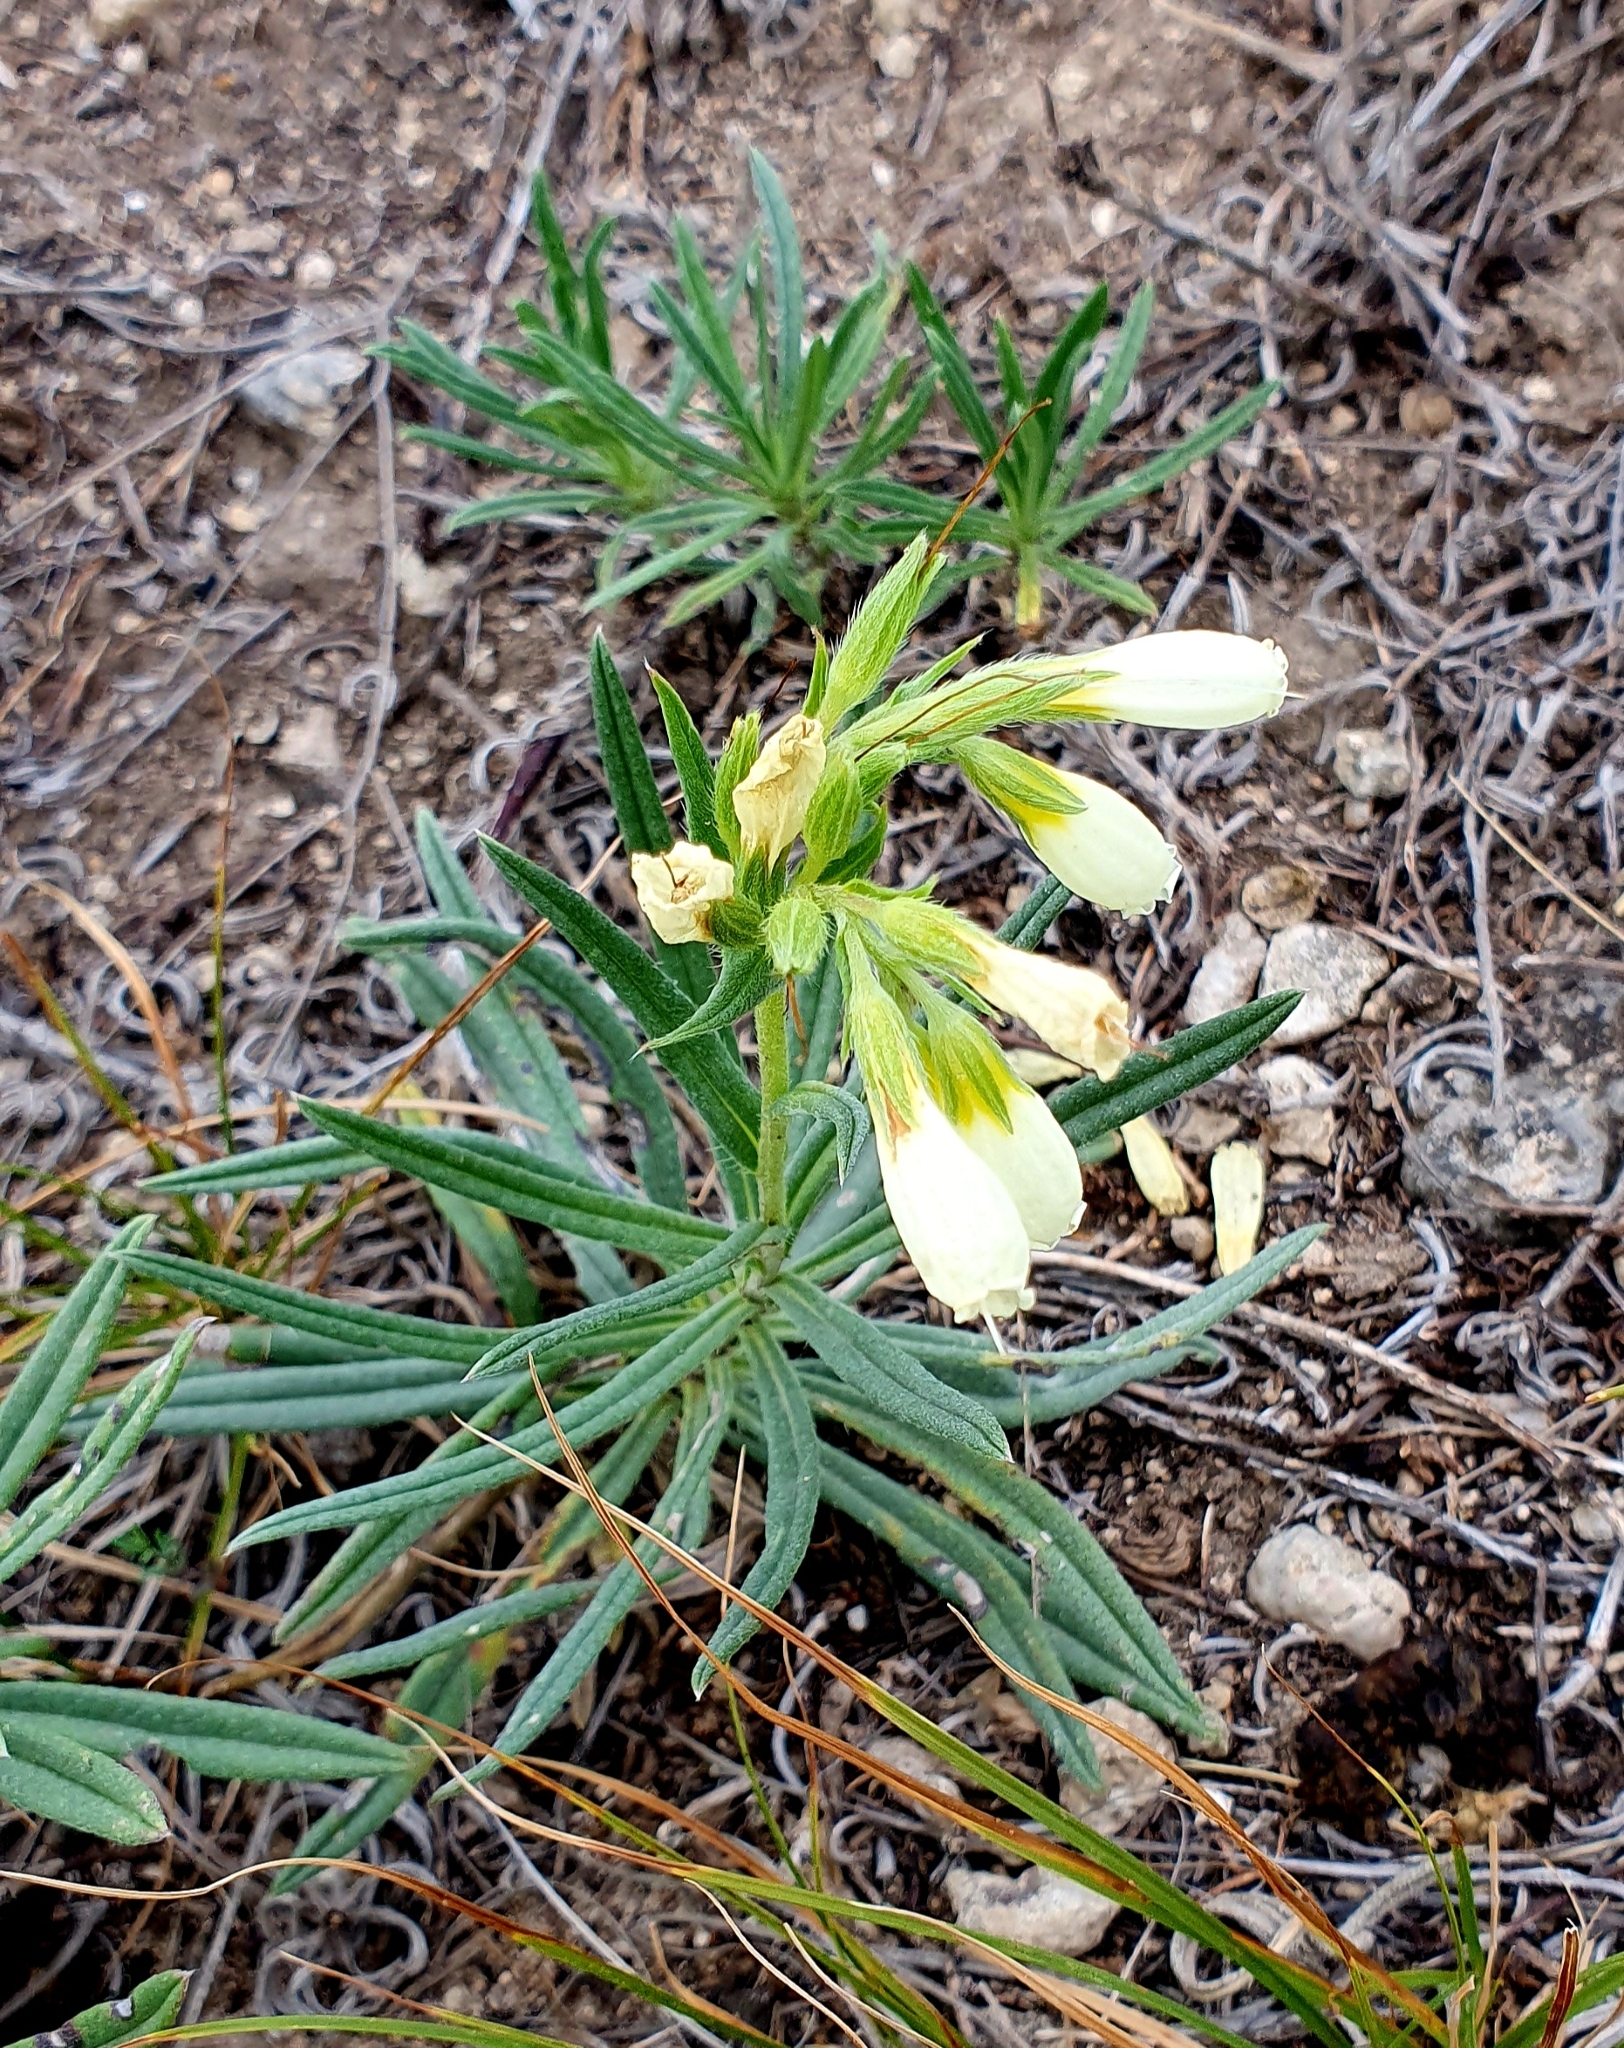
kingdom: Plantae
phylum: Tracheophyta
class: Magnoliopsida
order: Boraginales
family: Boraginaceae
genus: Onosma
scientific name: Onosma simplicissima
